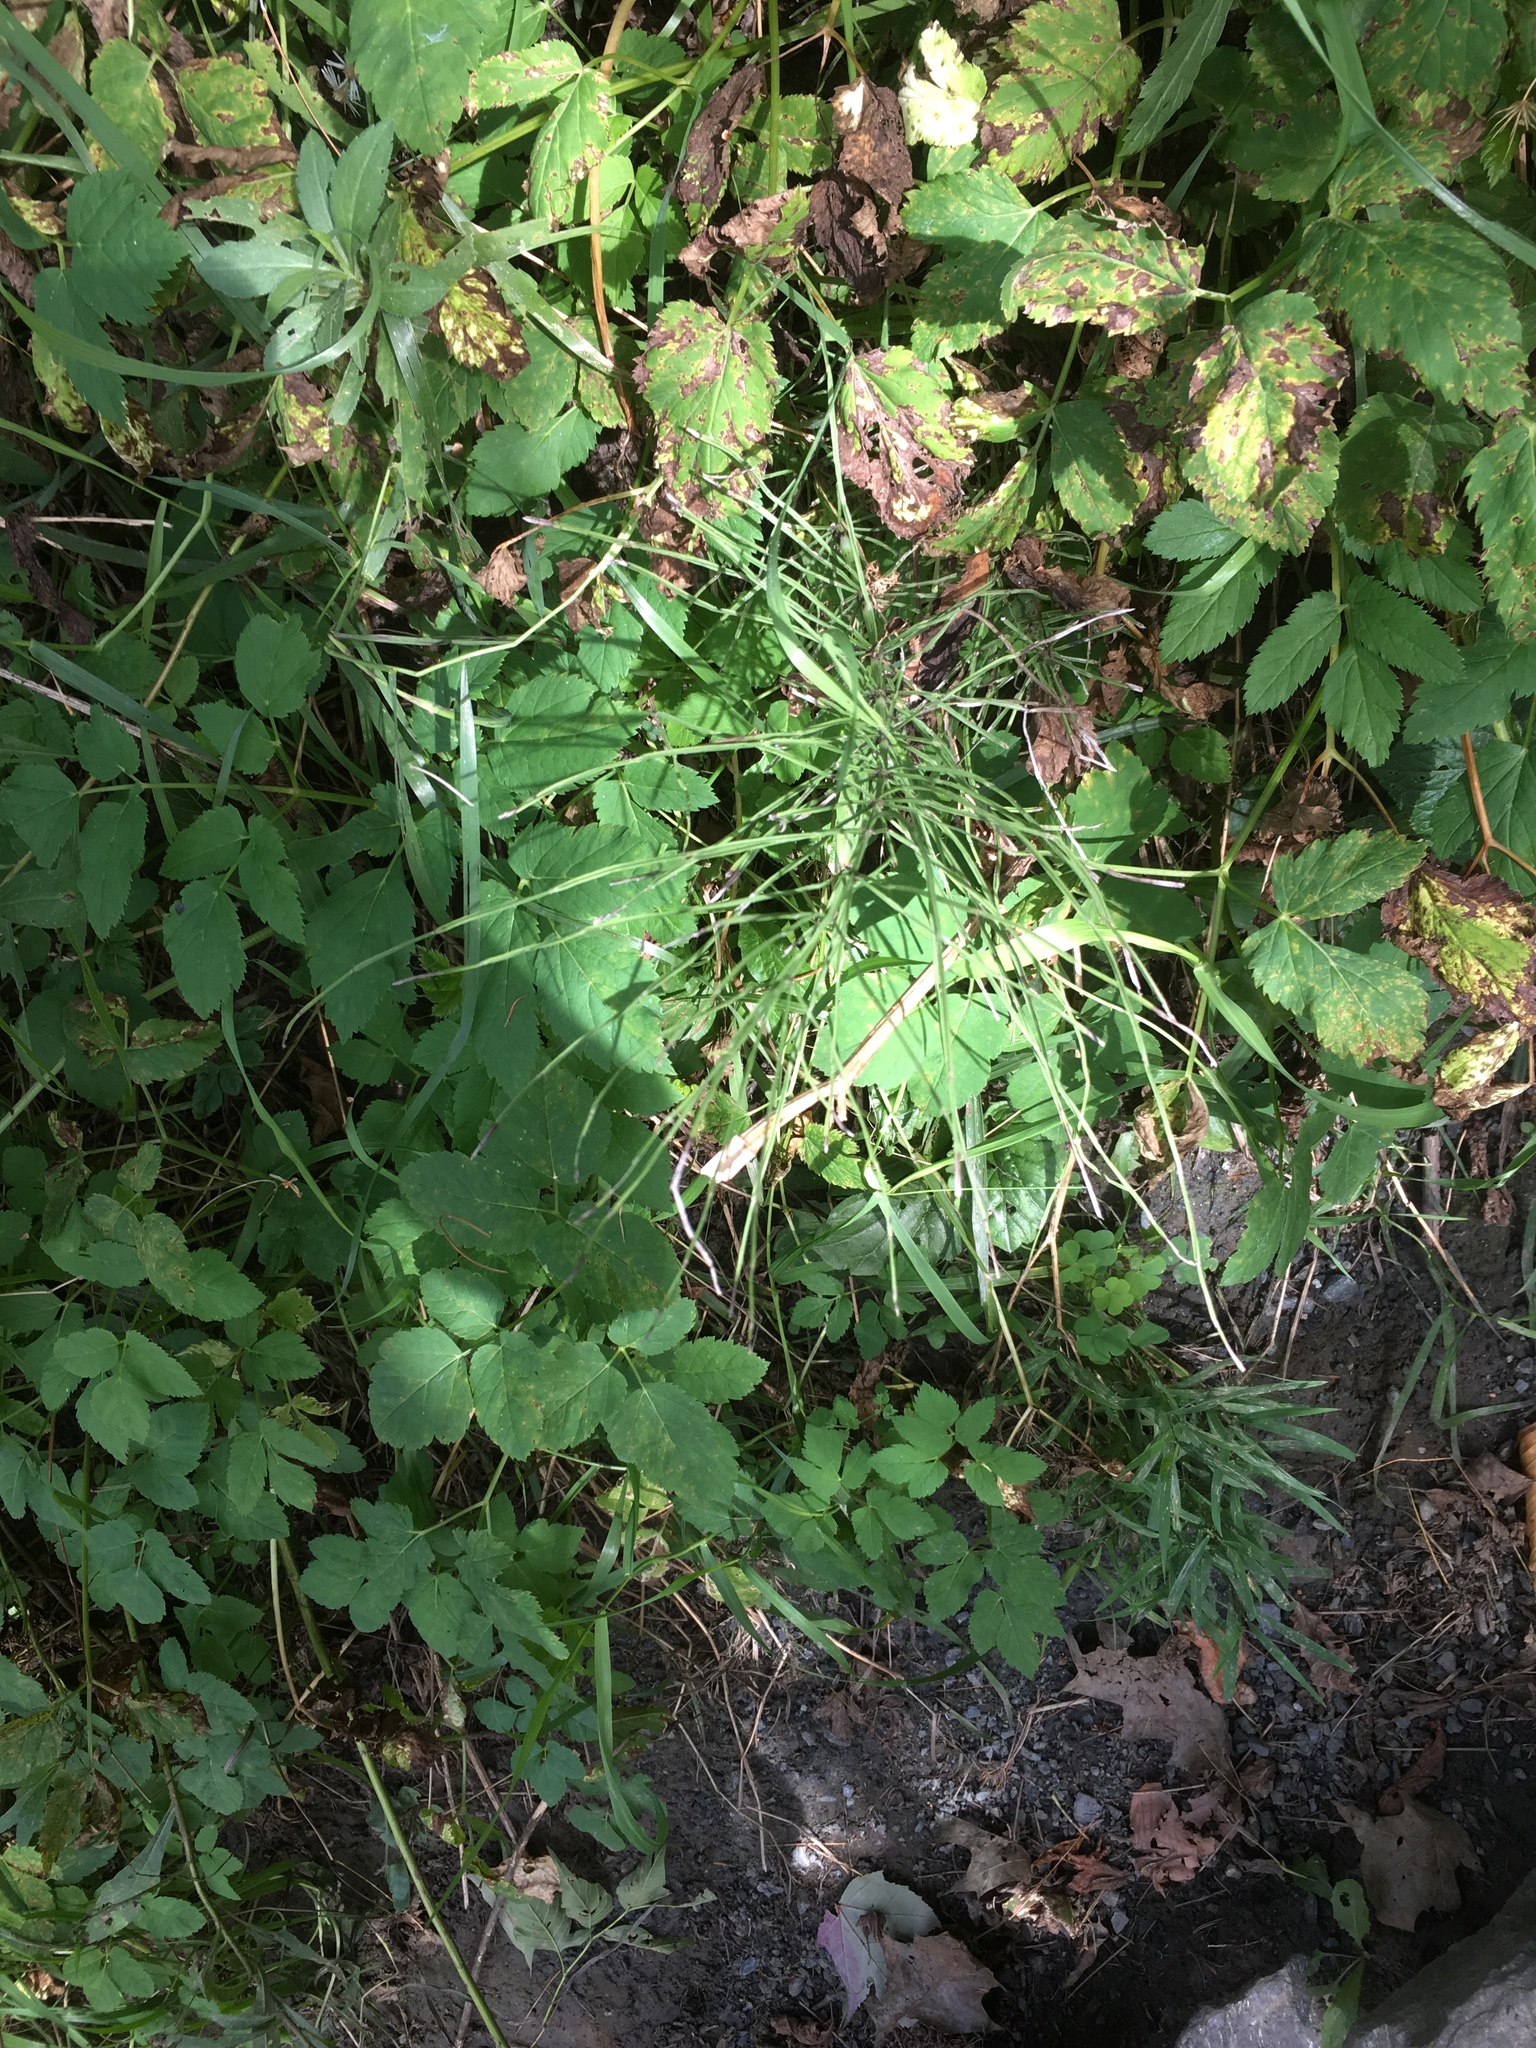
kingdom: Plantae
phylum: Tracheophyta
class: Polypodiopsida
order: Equisetales
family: Equisetaceae
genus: Equisetum
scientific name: Equisetum arvense
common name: Field horsetail
